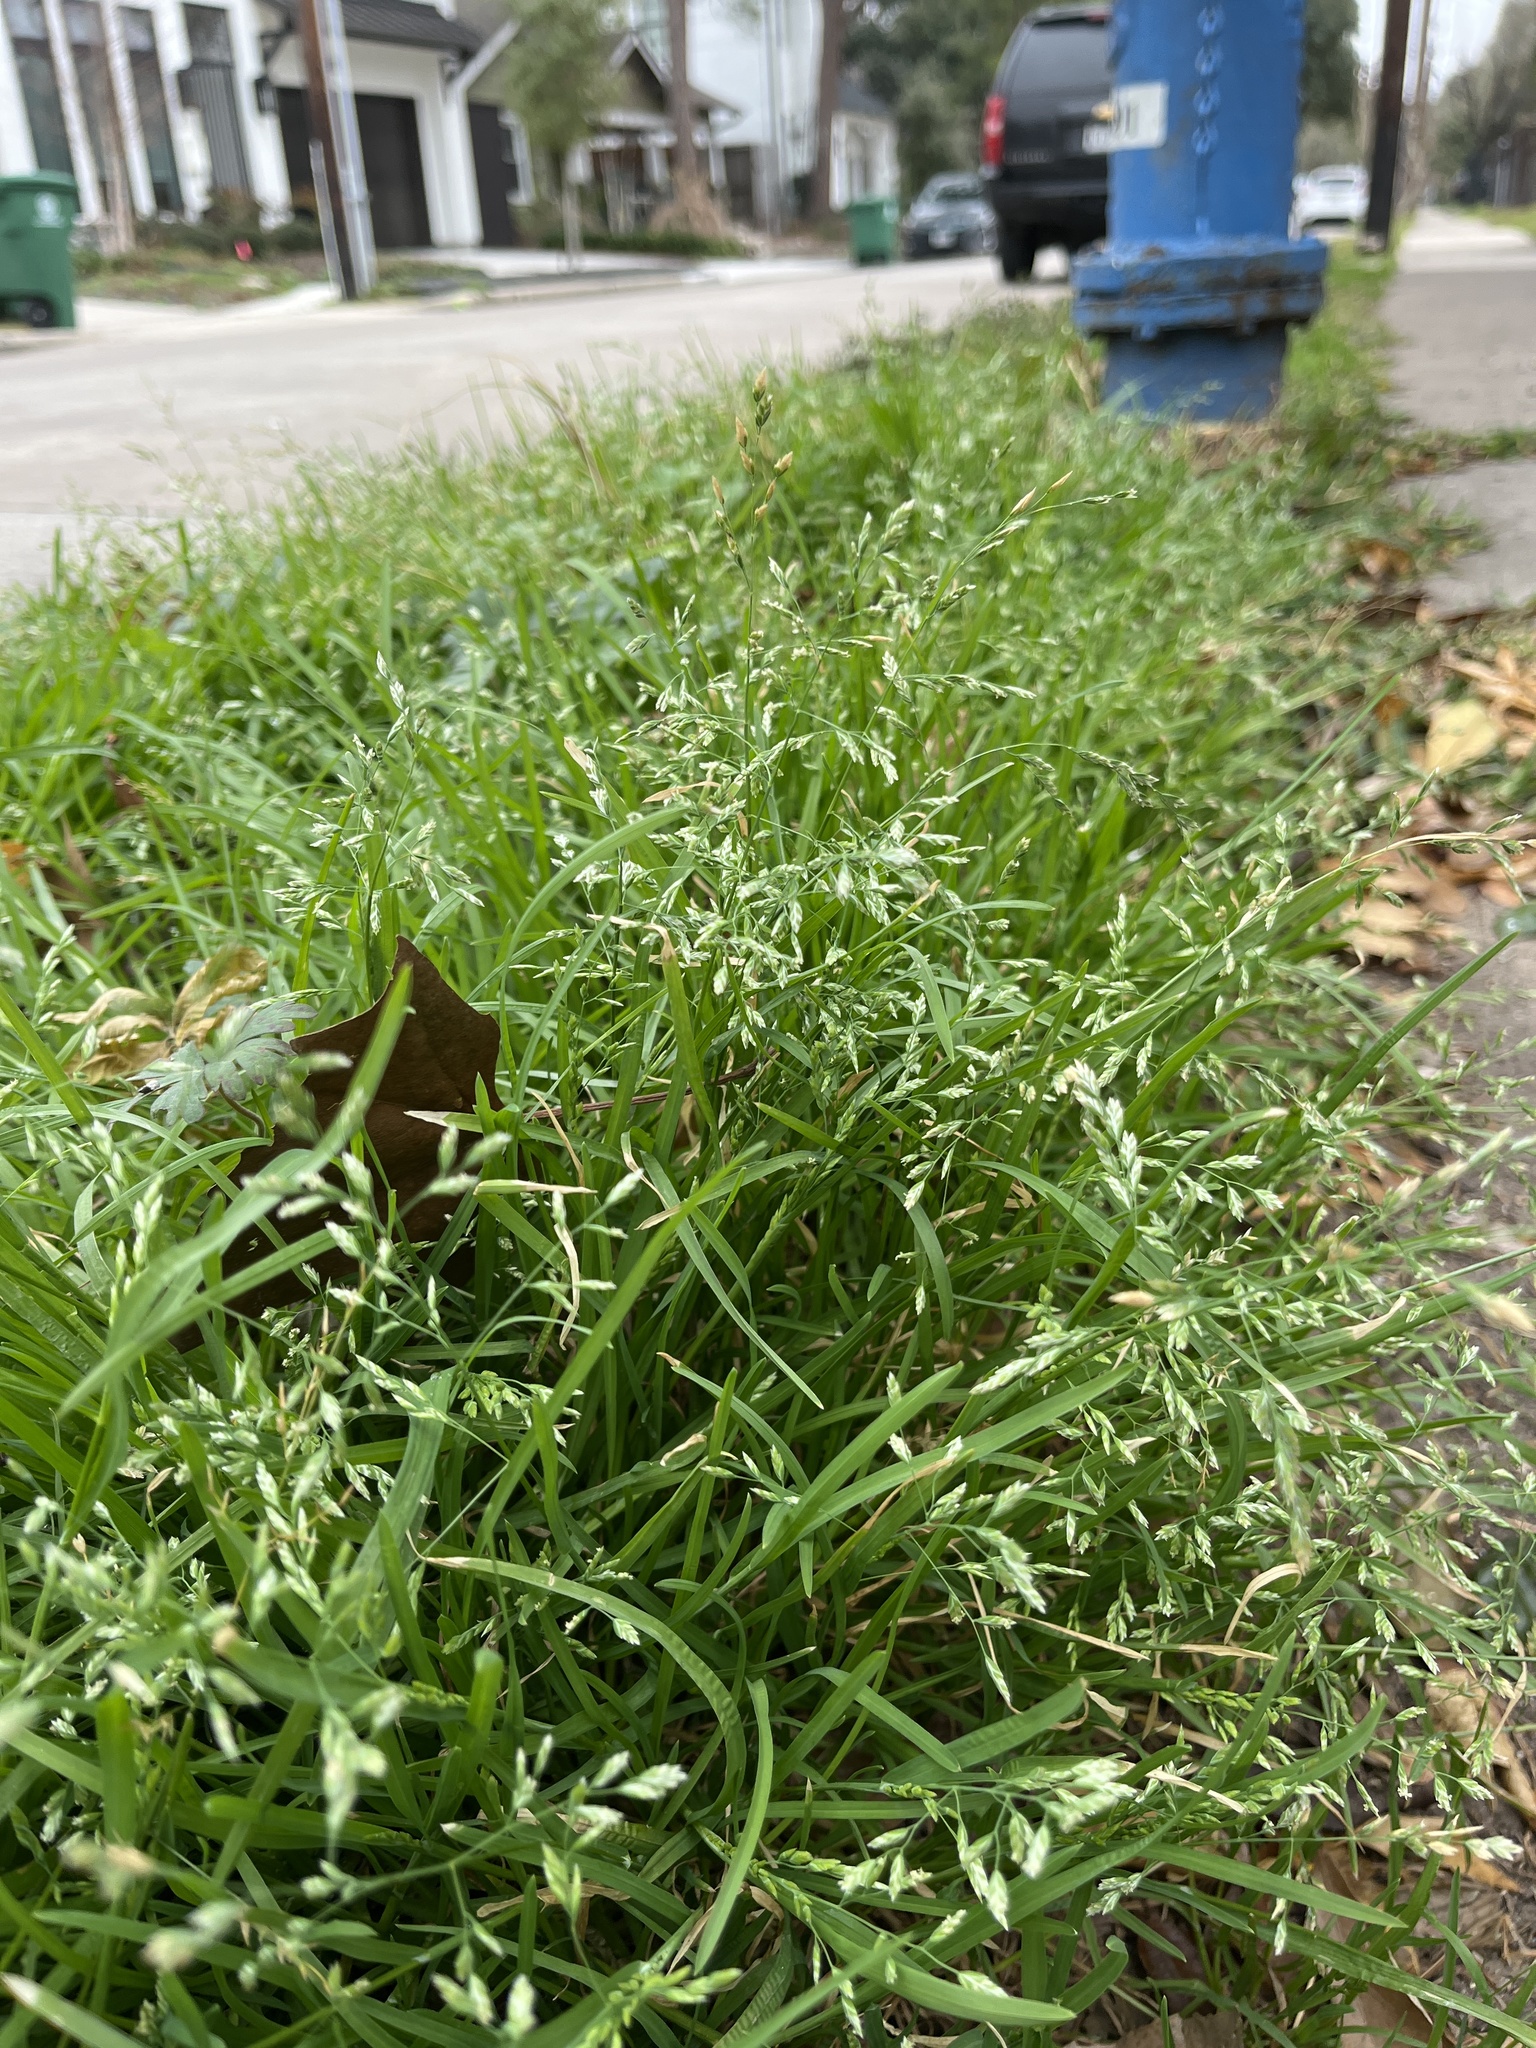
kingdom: Plantae
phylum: Tracheophyta
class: Liliopsida
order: Poales
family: Poaceae
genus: Poa
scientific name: Poa annua
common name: Annual bluegrass
